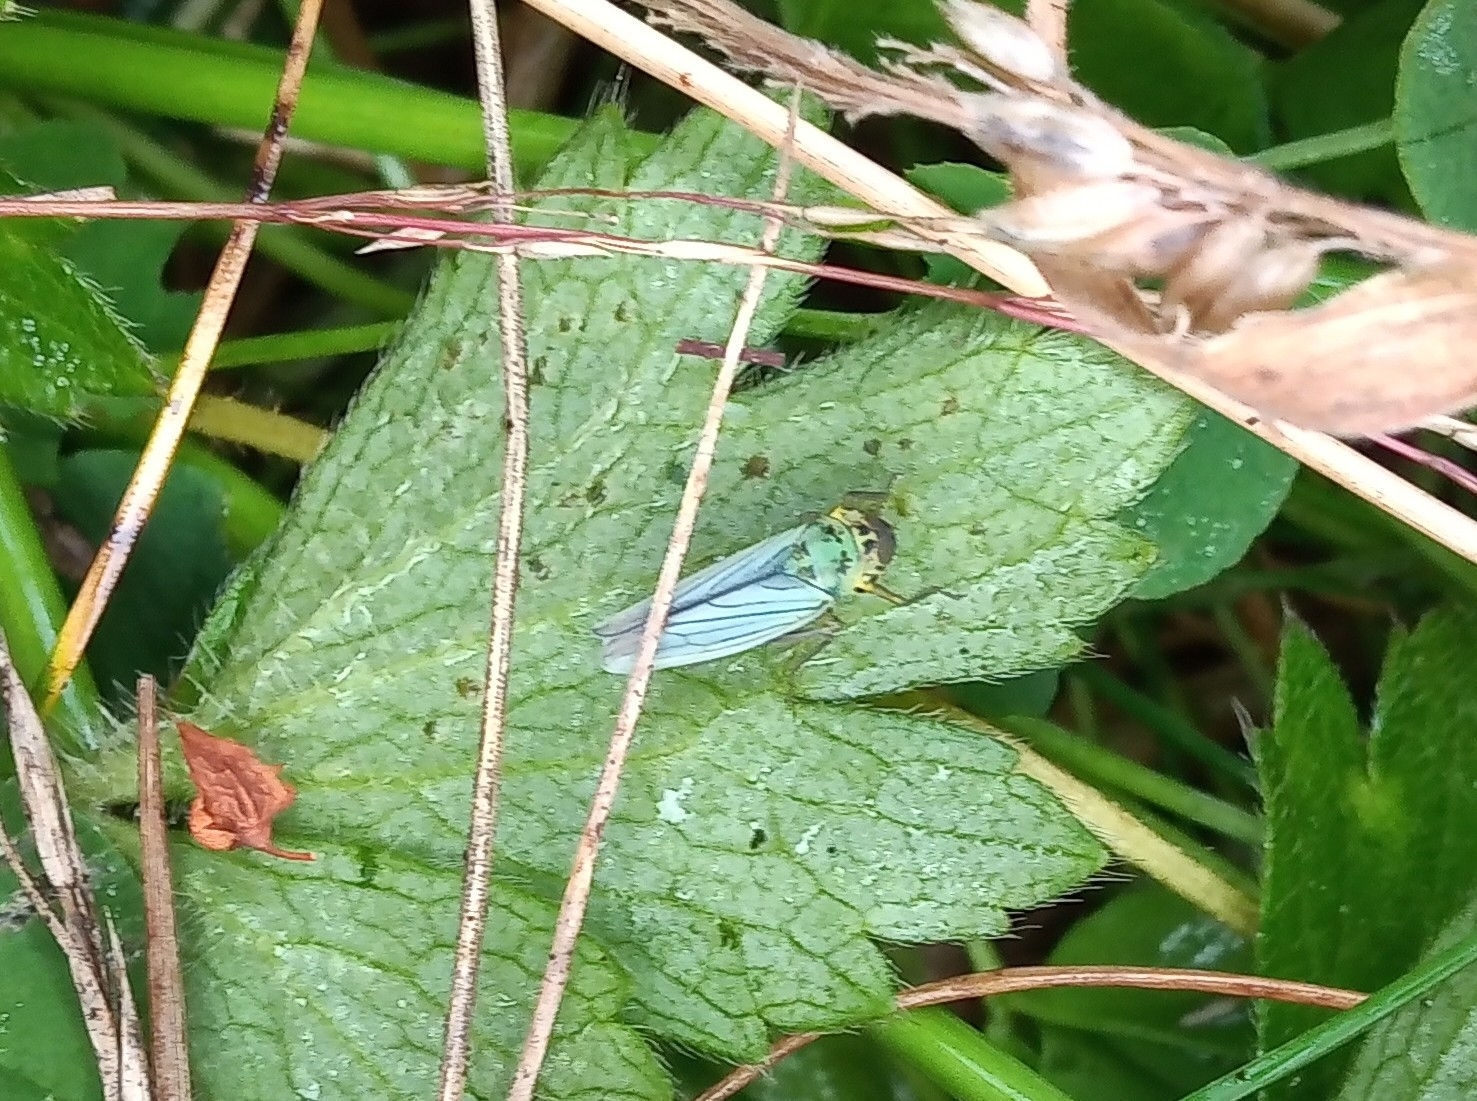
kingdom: Animalia
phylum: Arthropoda
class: Insecta
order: Hemiptera
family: Cicadellidae
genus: Cicadella
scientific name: Cicadella viridis
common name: Leafhopper
